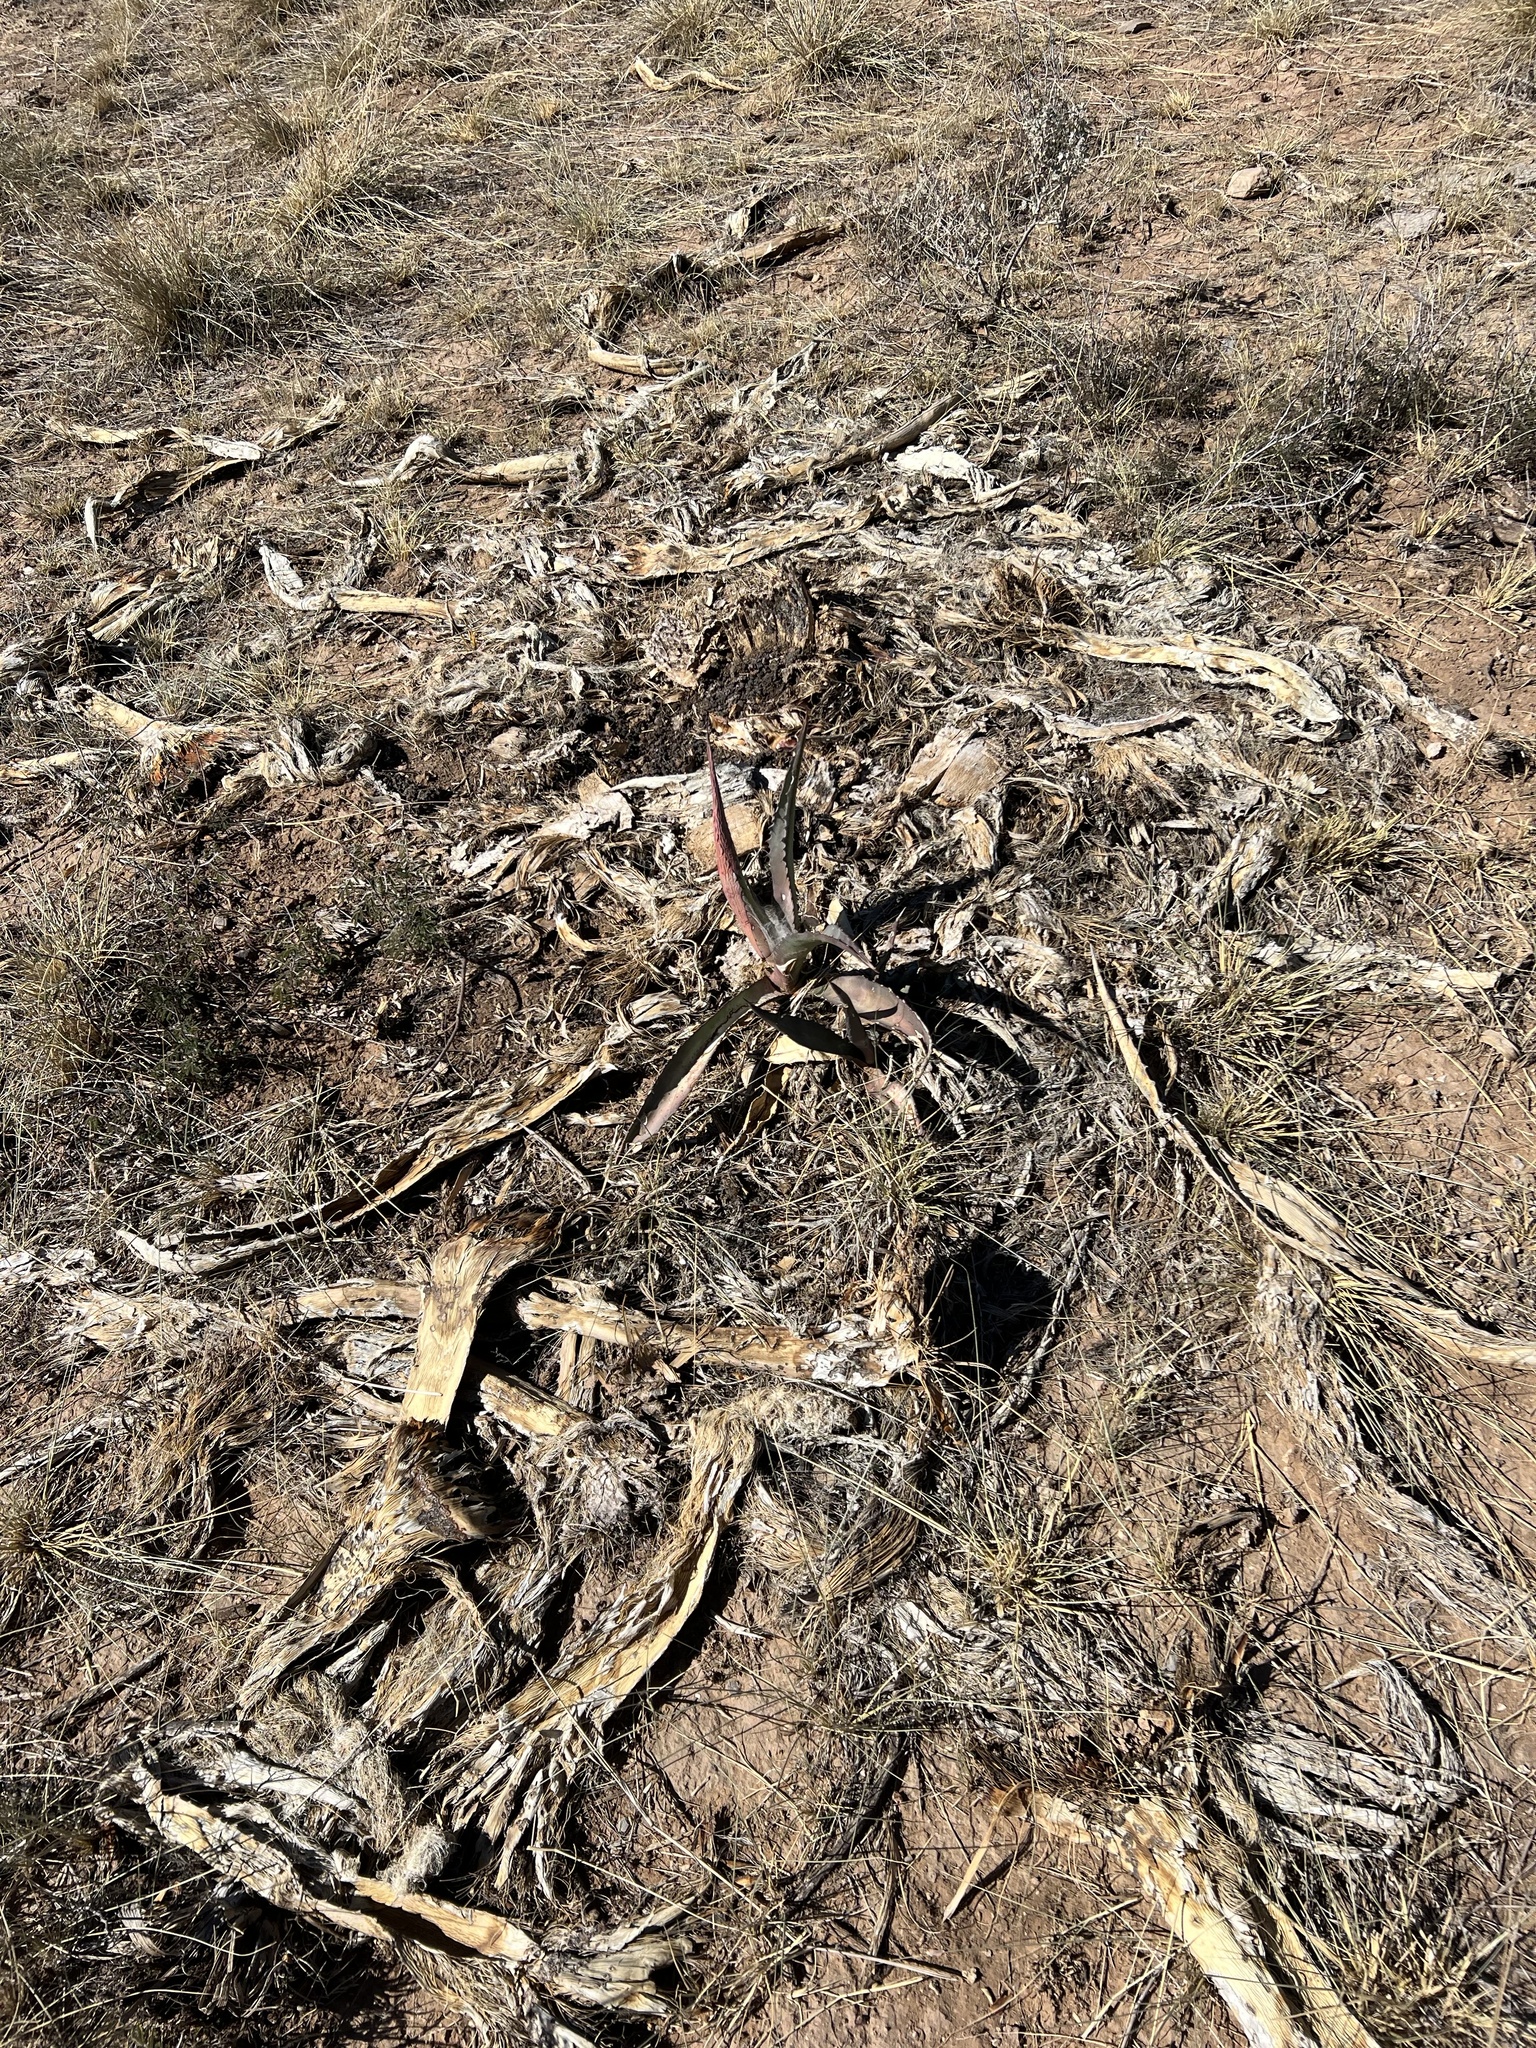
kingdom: Plantae
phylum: Tracheophyta
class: Liliopsida
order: Asparagales
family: Asparagaceae
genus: Agave
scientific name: Agave palmeri
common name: Palmer agave
